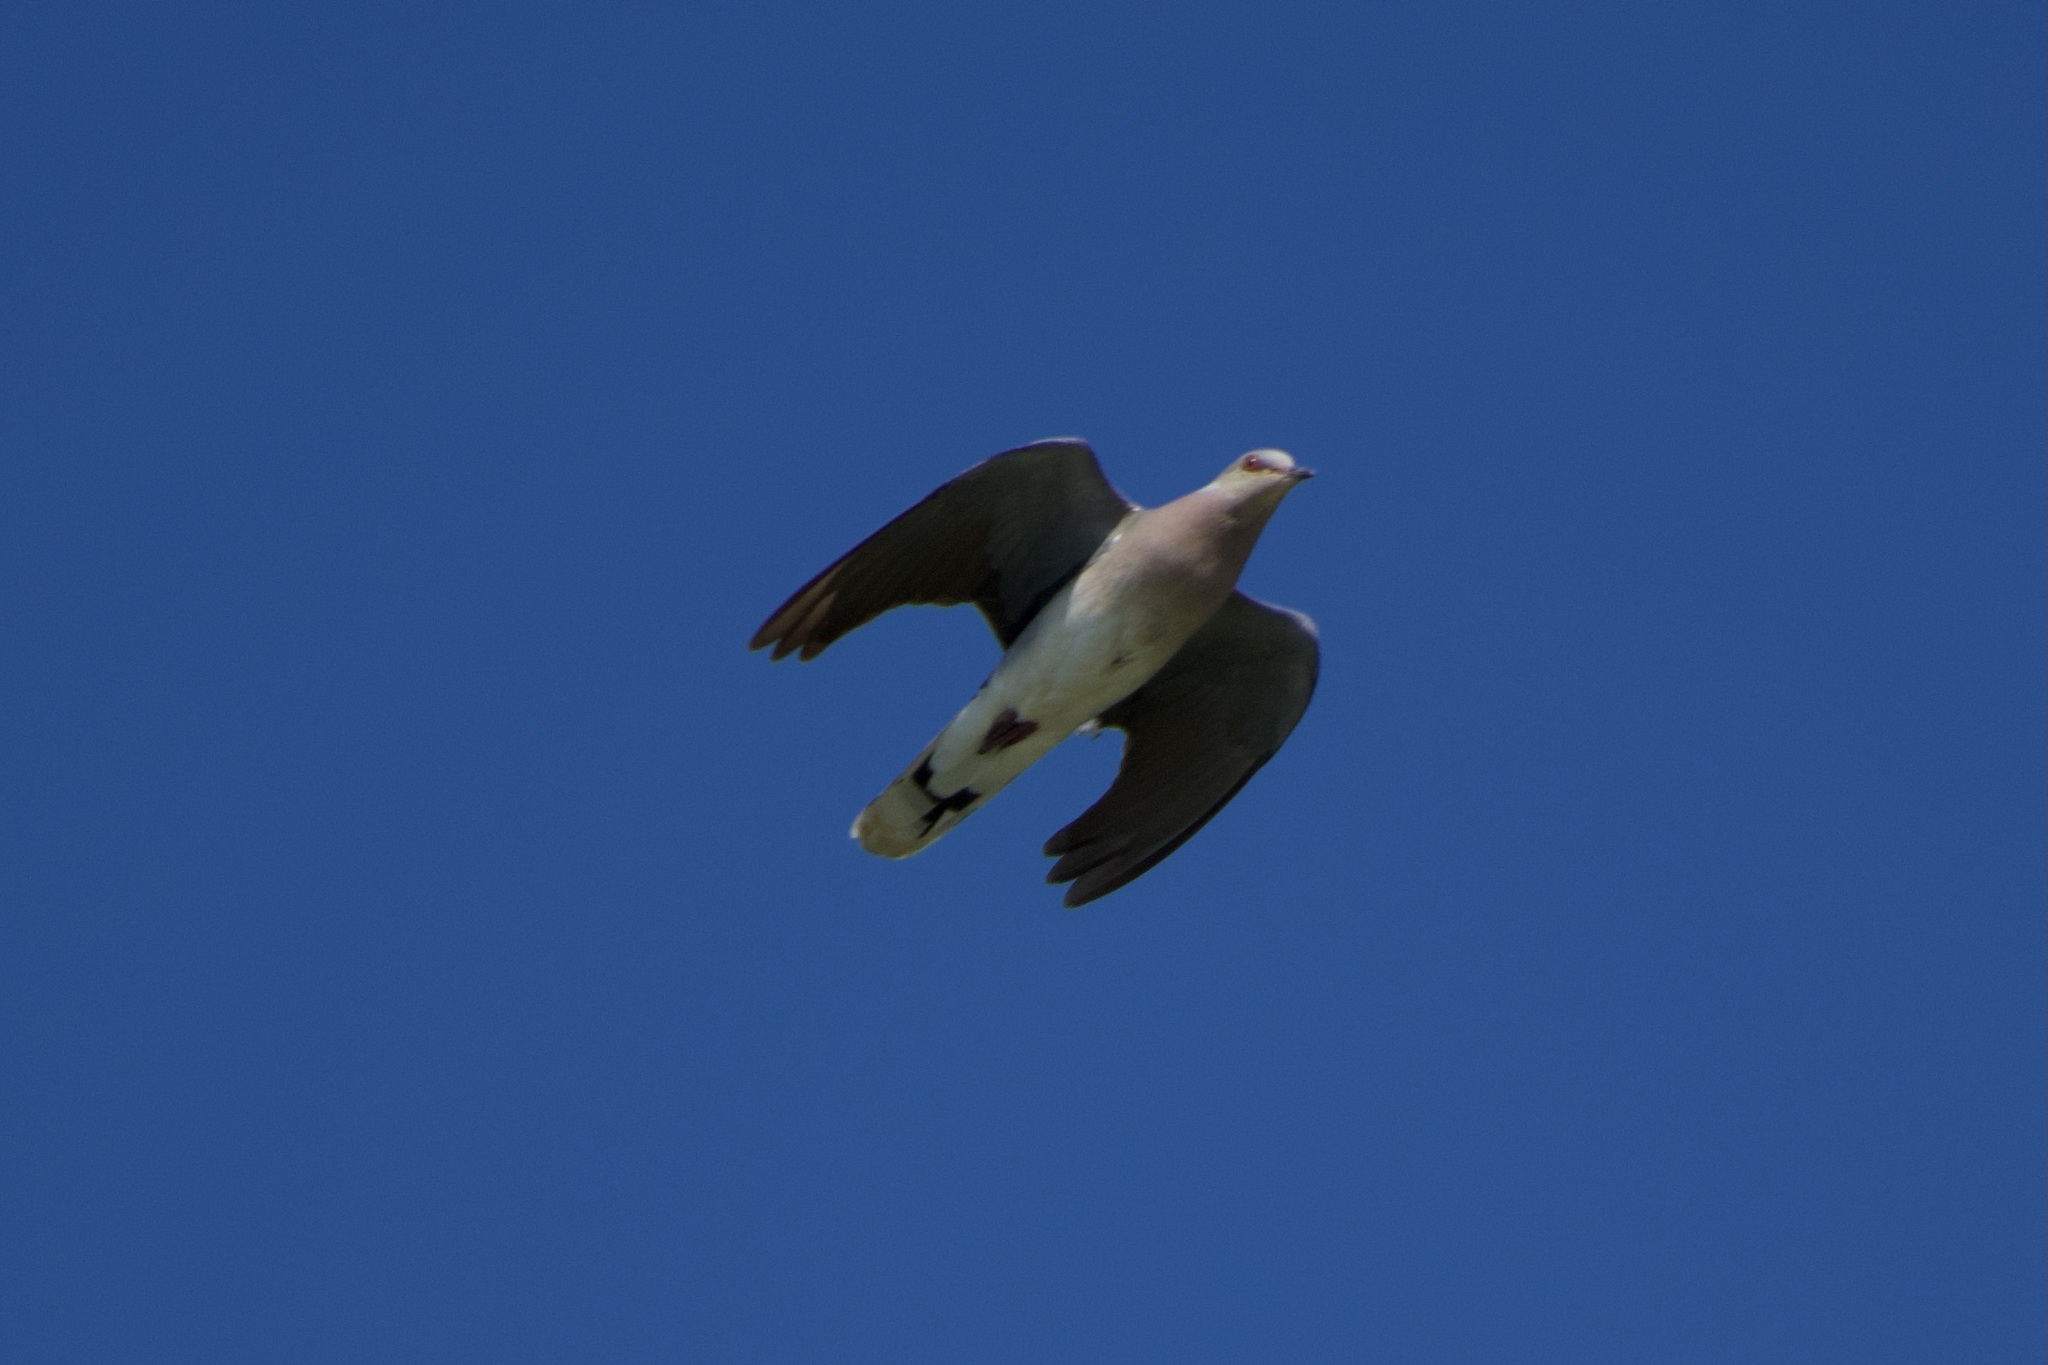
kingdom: Animalia
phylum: Chordata
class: Aves
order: Columbiformes
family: Columbidae
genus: Streptopelia
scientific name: Streptopelia turtur
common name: European turtle dove
